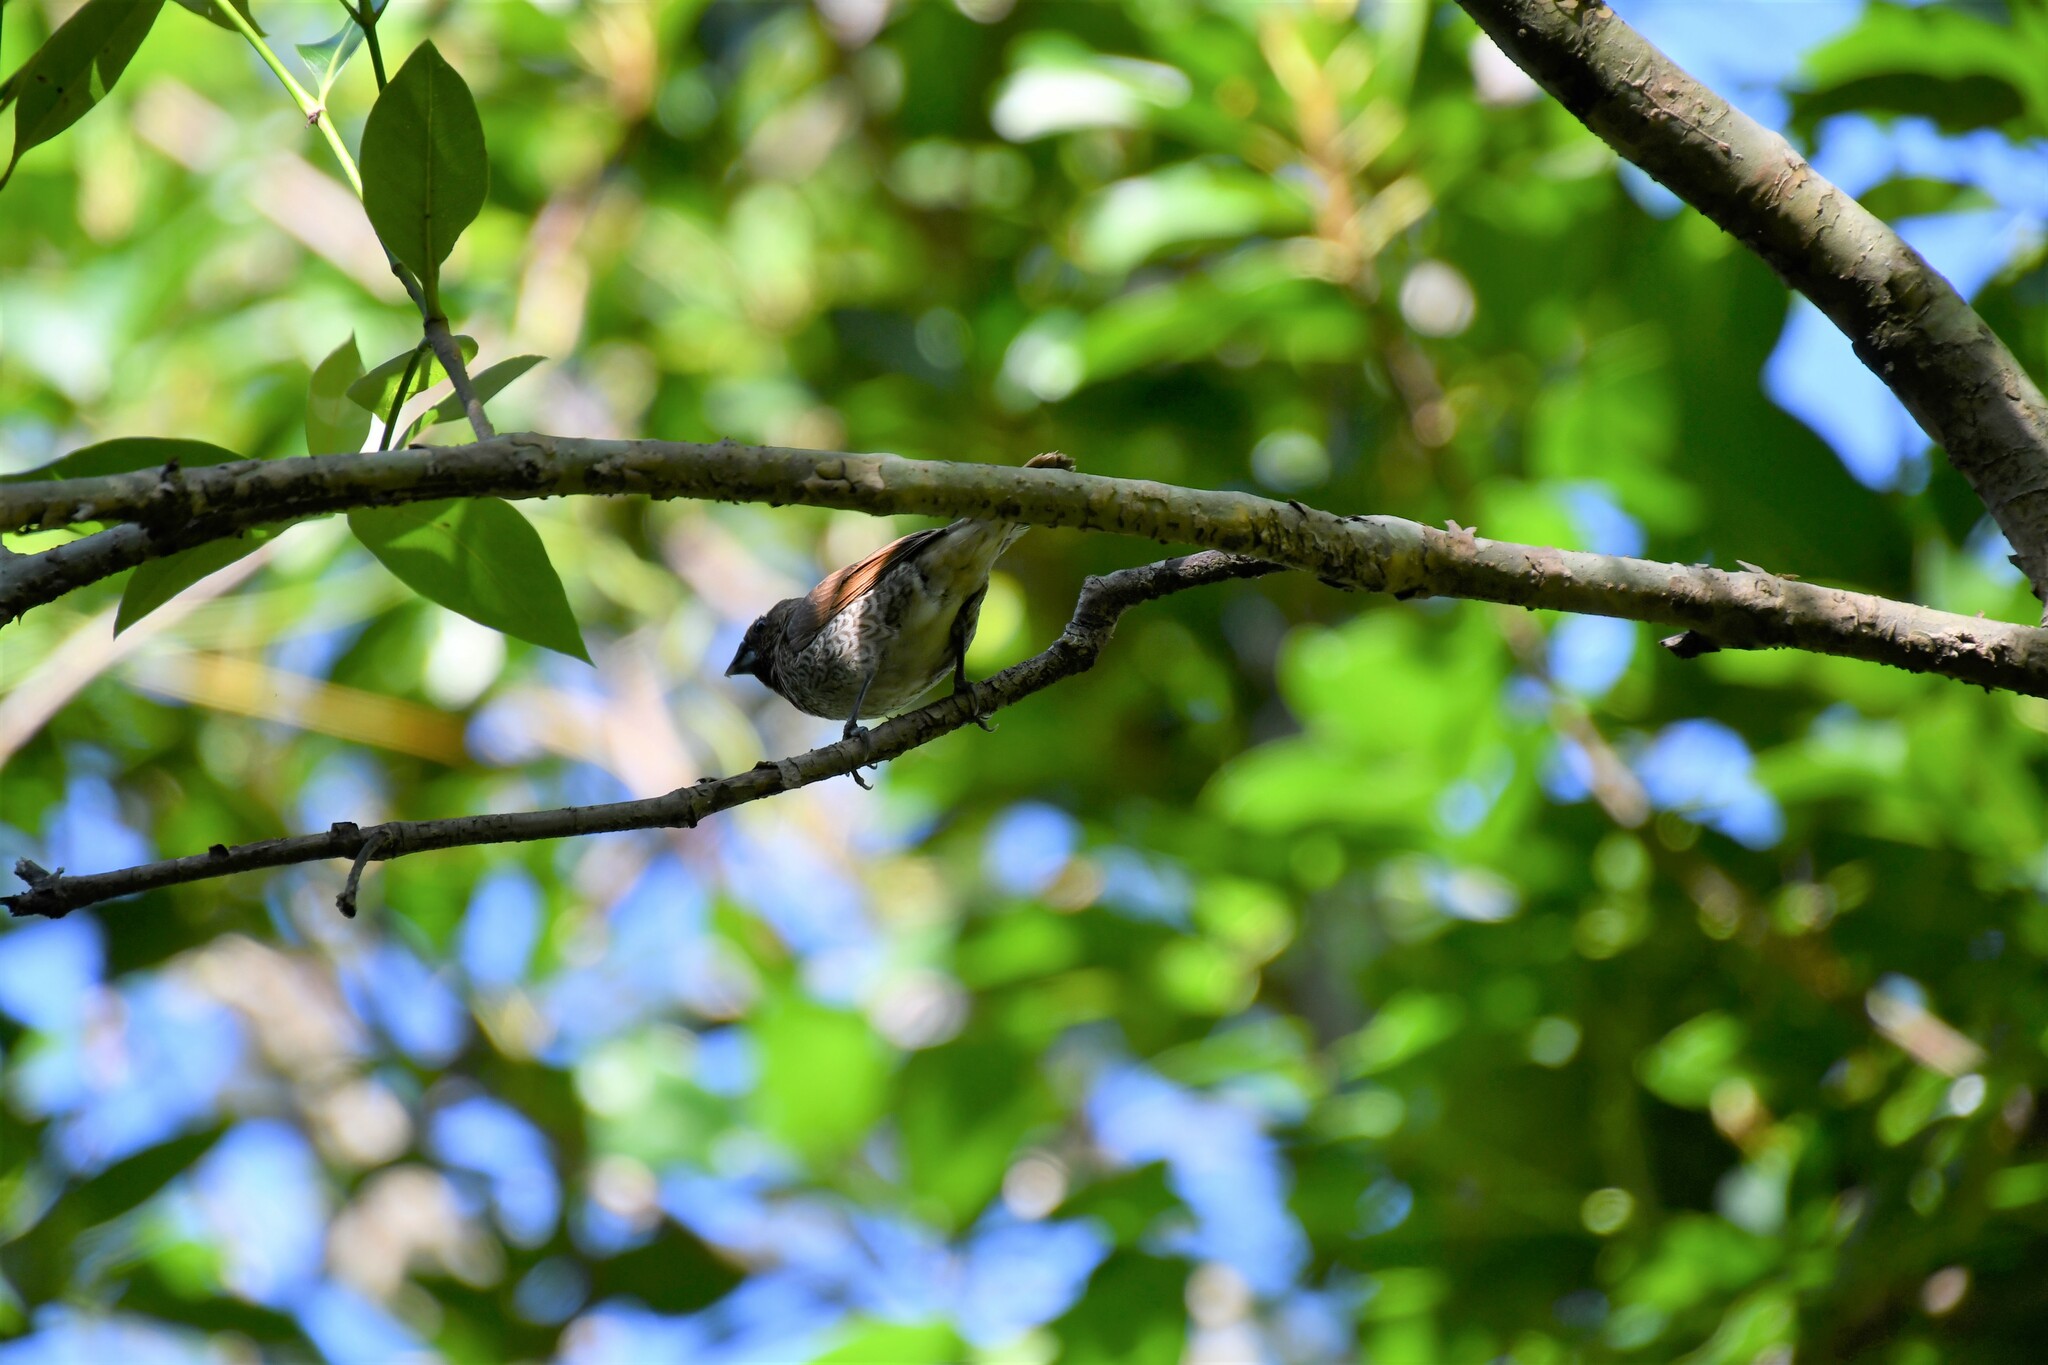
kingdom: Animalia
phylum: Chordata
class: Aves
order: Passeriformes
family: Estrildidae
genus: Lonchura
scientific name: Lonchura punctulata
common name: Scaly-breasted munia
